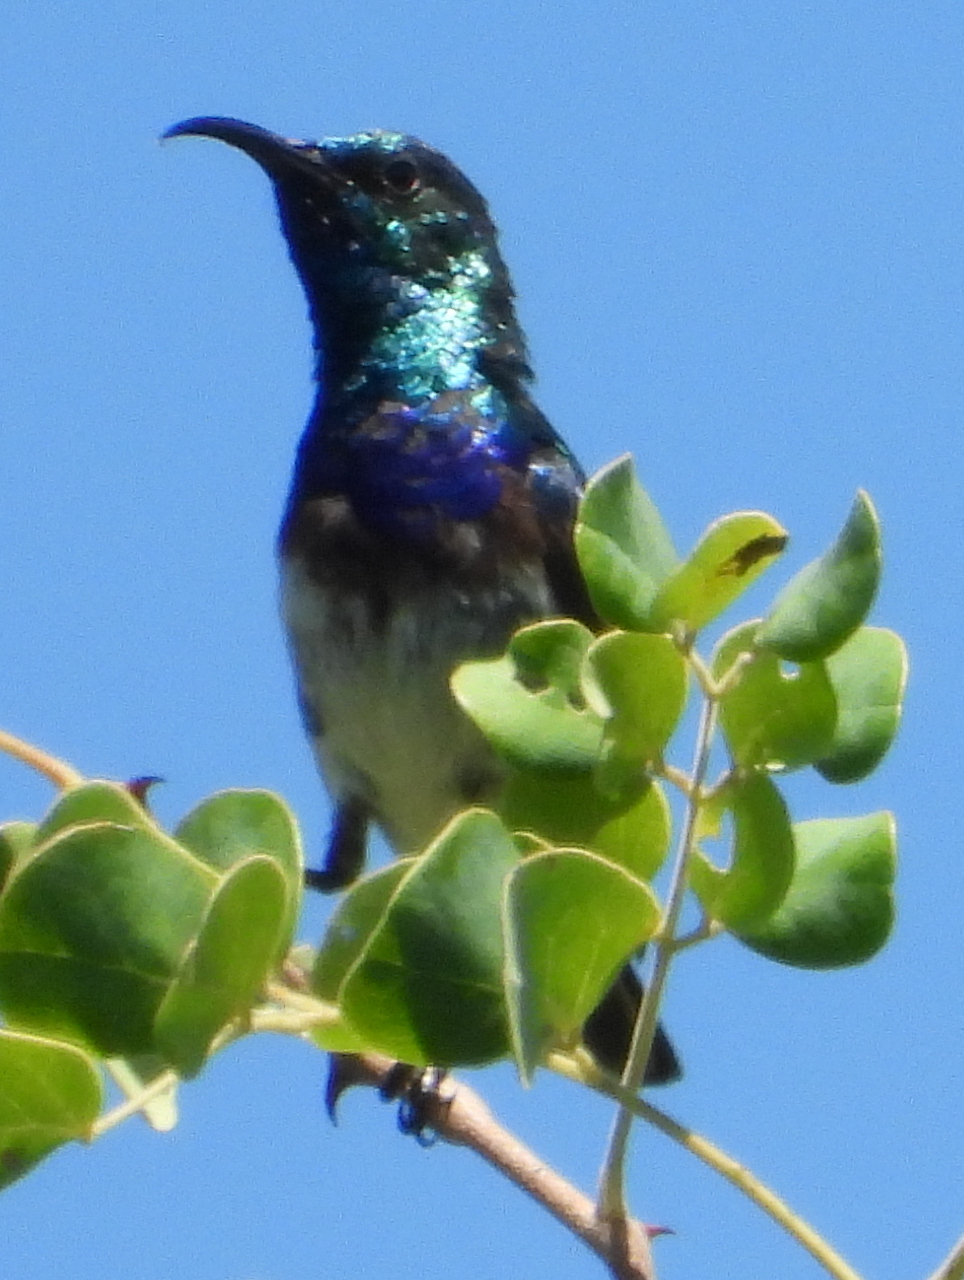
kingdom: Animalia
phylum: Chordata
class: Aves
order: Passeriformes
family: Nectariniidae
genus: Cinnyris
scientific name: Cinnyris talatala
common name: White-bellied sunbird
